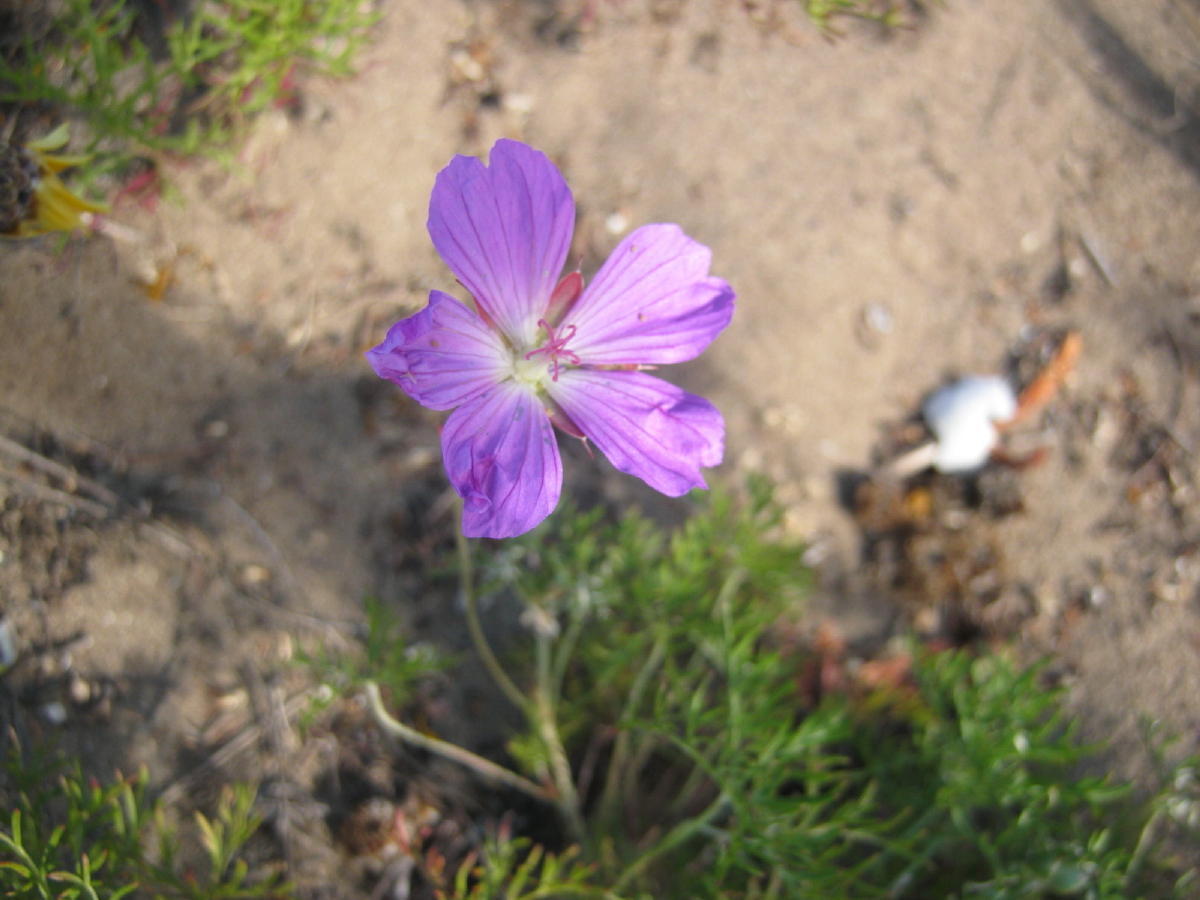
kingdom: Plantae
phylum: Tracheophyta
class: Magnoliopsida
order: Geraniales
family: Geraniaceae
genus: Geranium
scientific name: Geranium incanum
